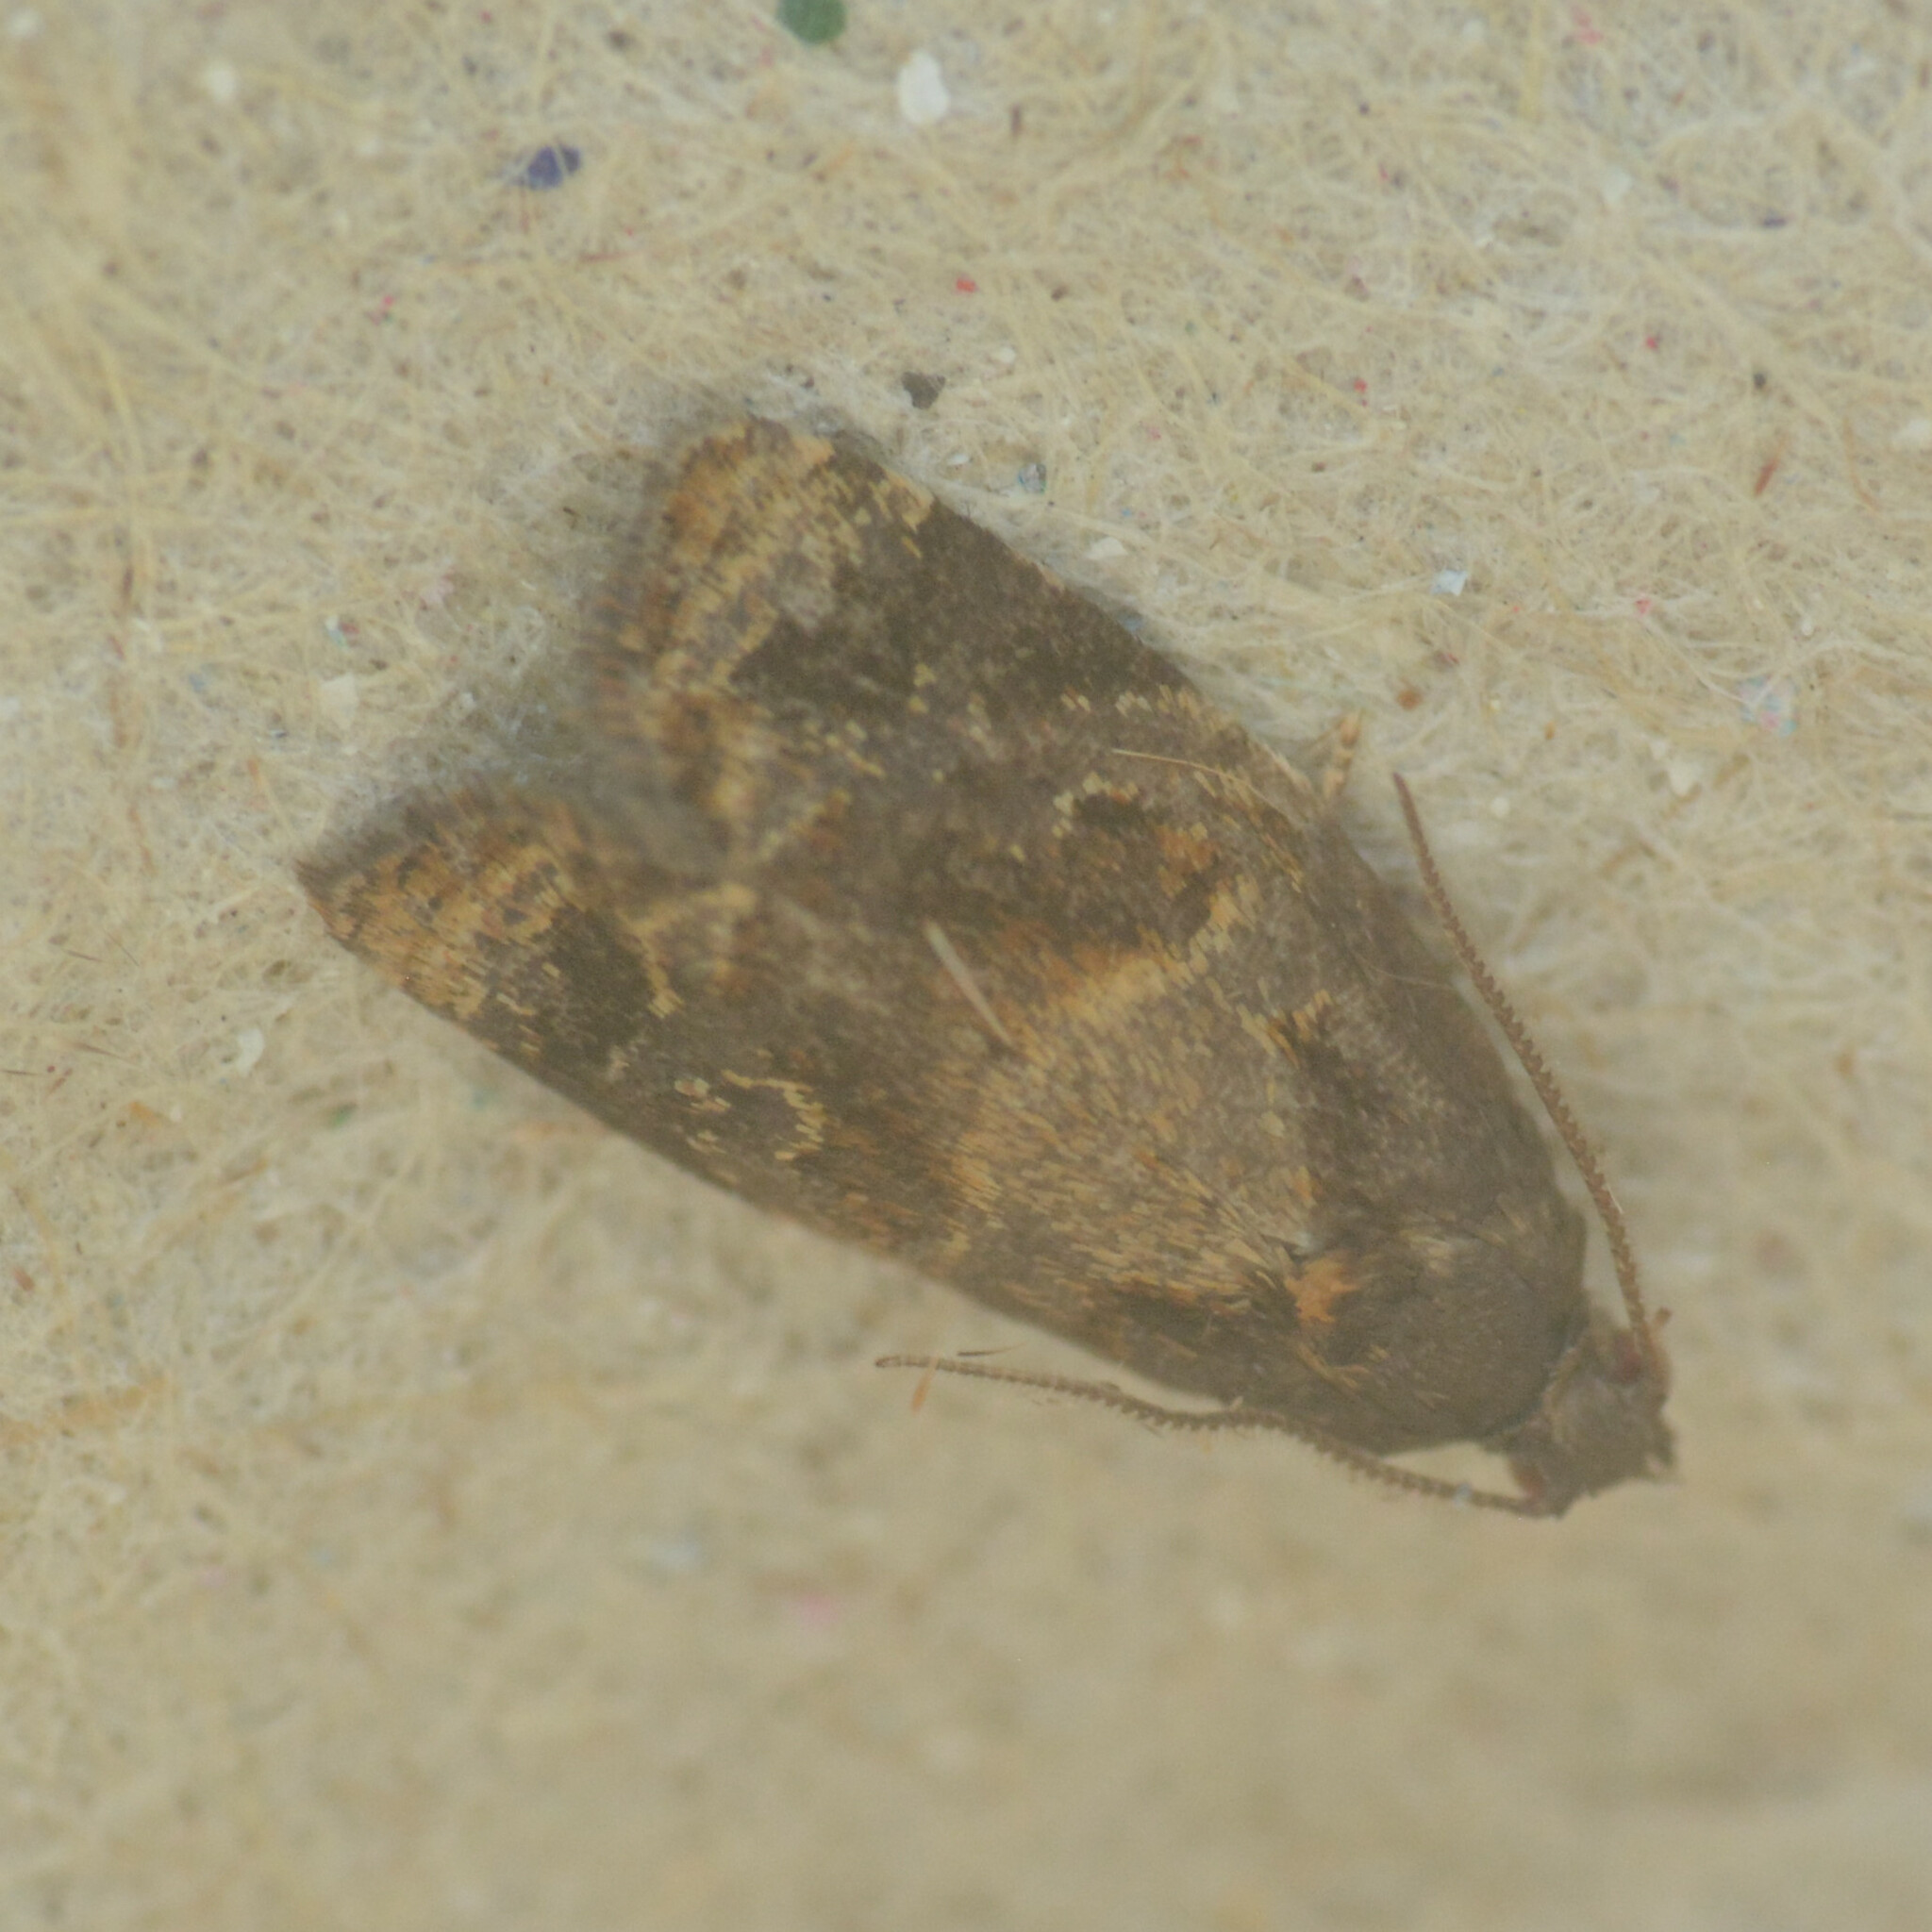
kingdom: Animalia
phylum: Arthropoda
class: Insecta
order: Lepidoptera
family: Tortricidae
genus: Ditula
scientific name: Ditula angustiorana
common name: Red-barred tortrix
